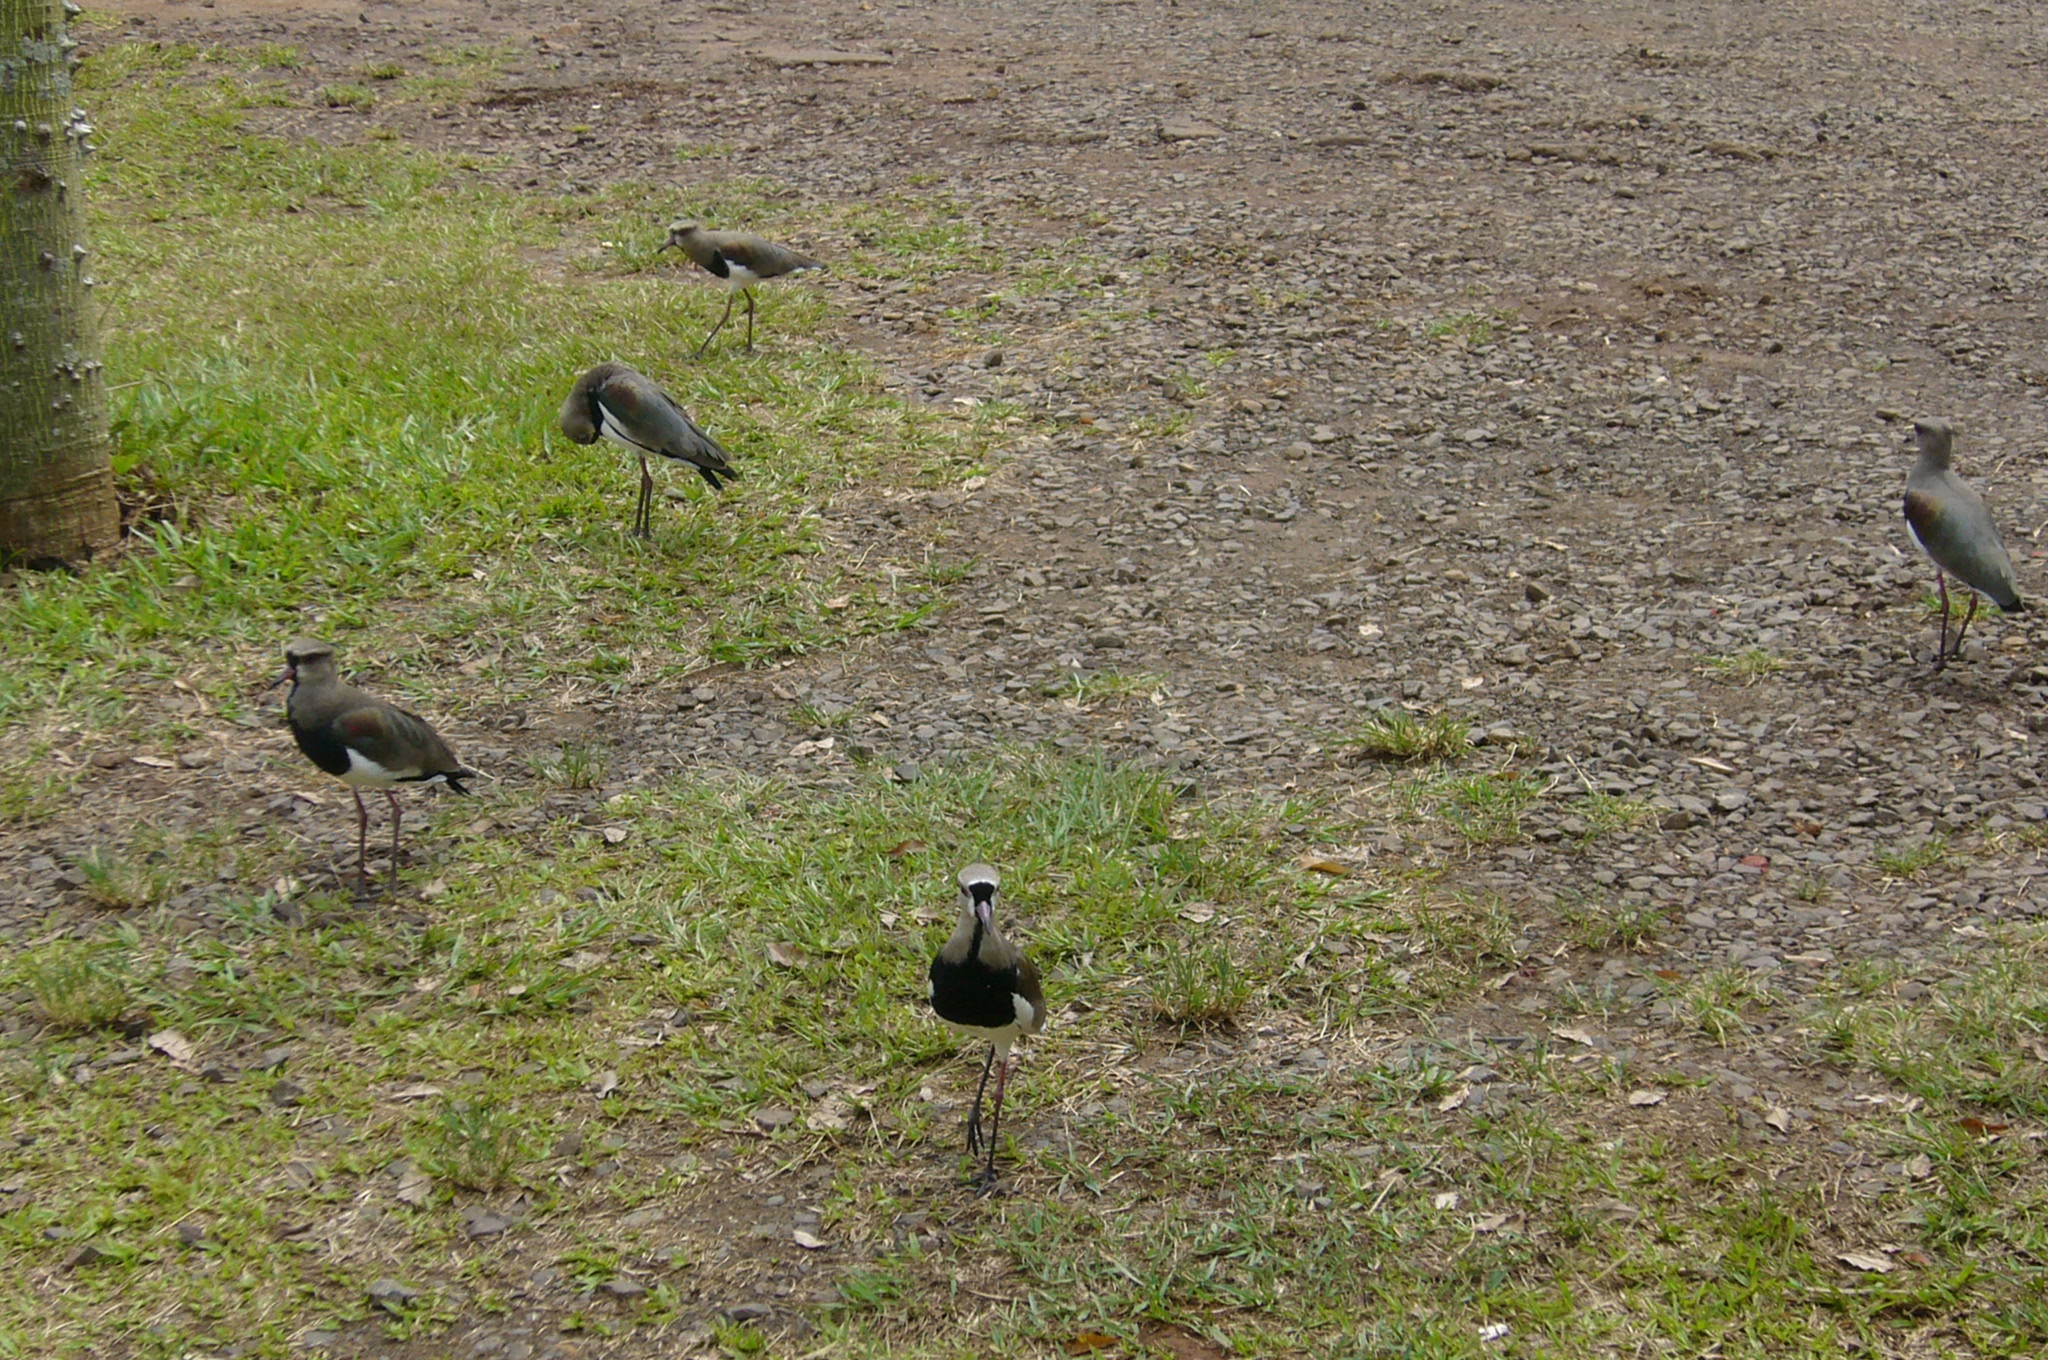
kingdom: Animalia
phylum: Chordata
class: Aves
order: Charadriiformes
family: Charadriidae
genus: Vanellus
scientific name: Vanellus chilensis
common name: Southern lapwing
